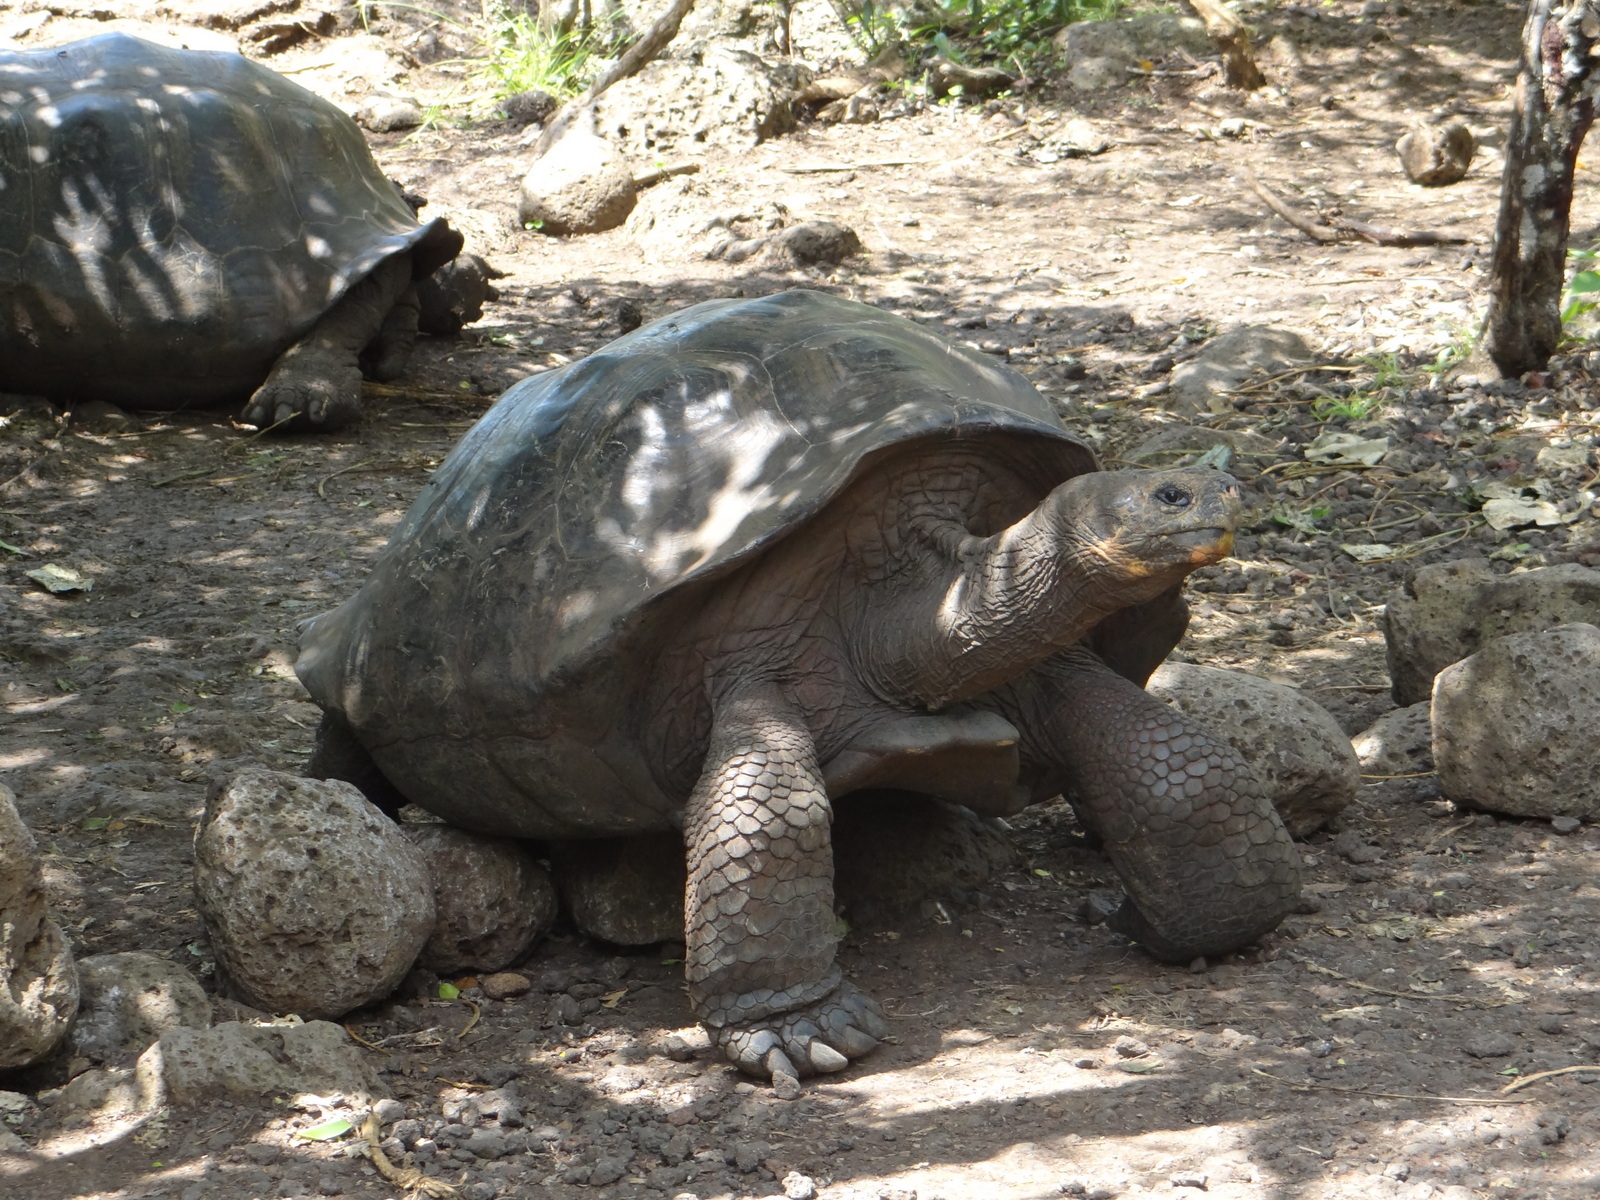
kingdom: Animalia
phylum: Chordata
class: Testudines
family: Testudinidae
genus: Chelonoidis
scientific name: Chelonoidis niger
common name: Charles island giant tortoise
